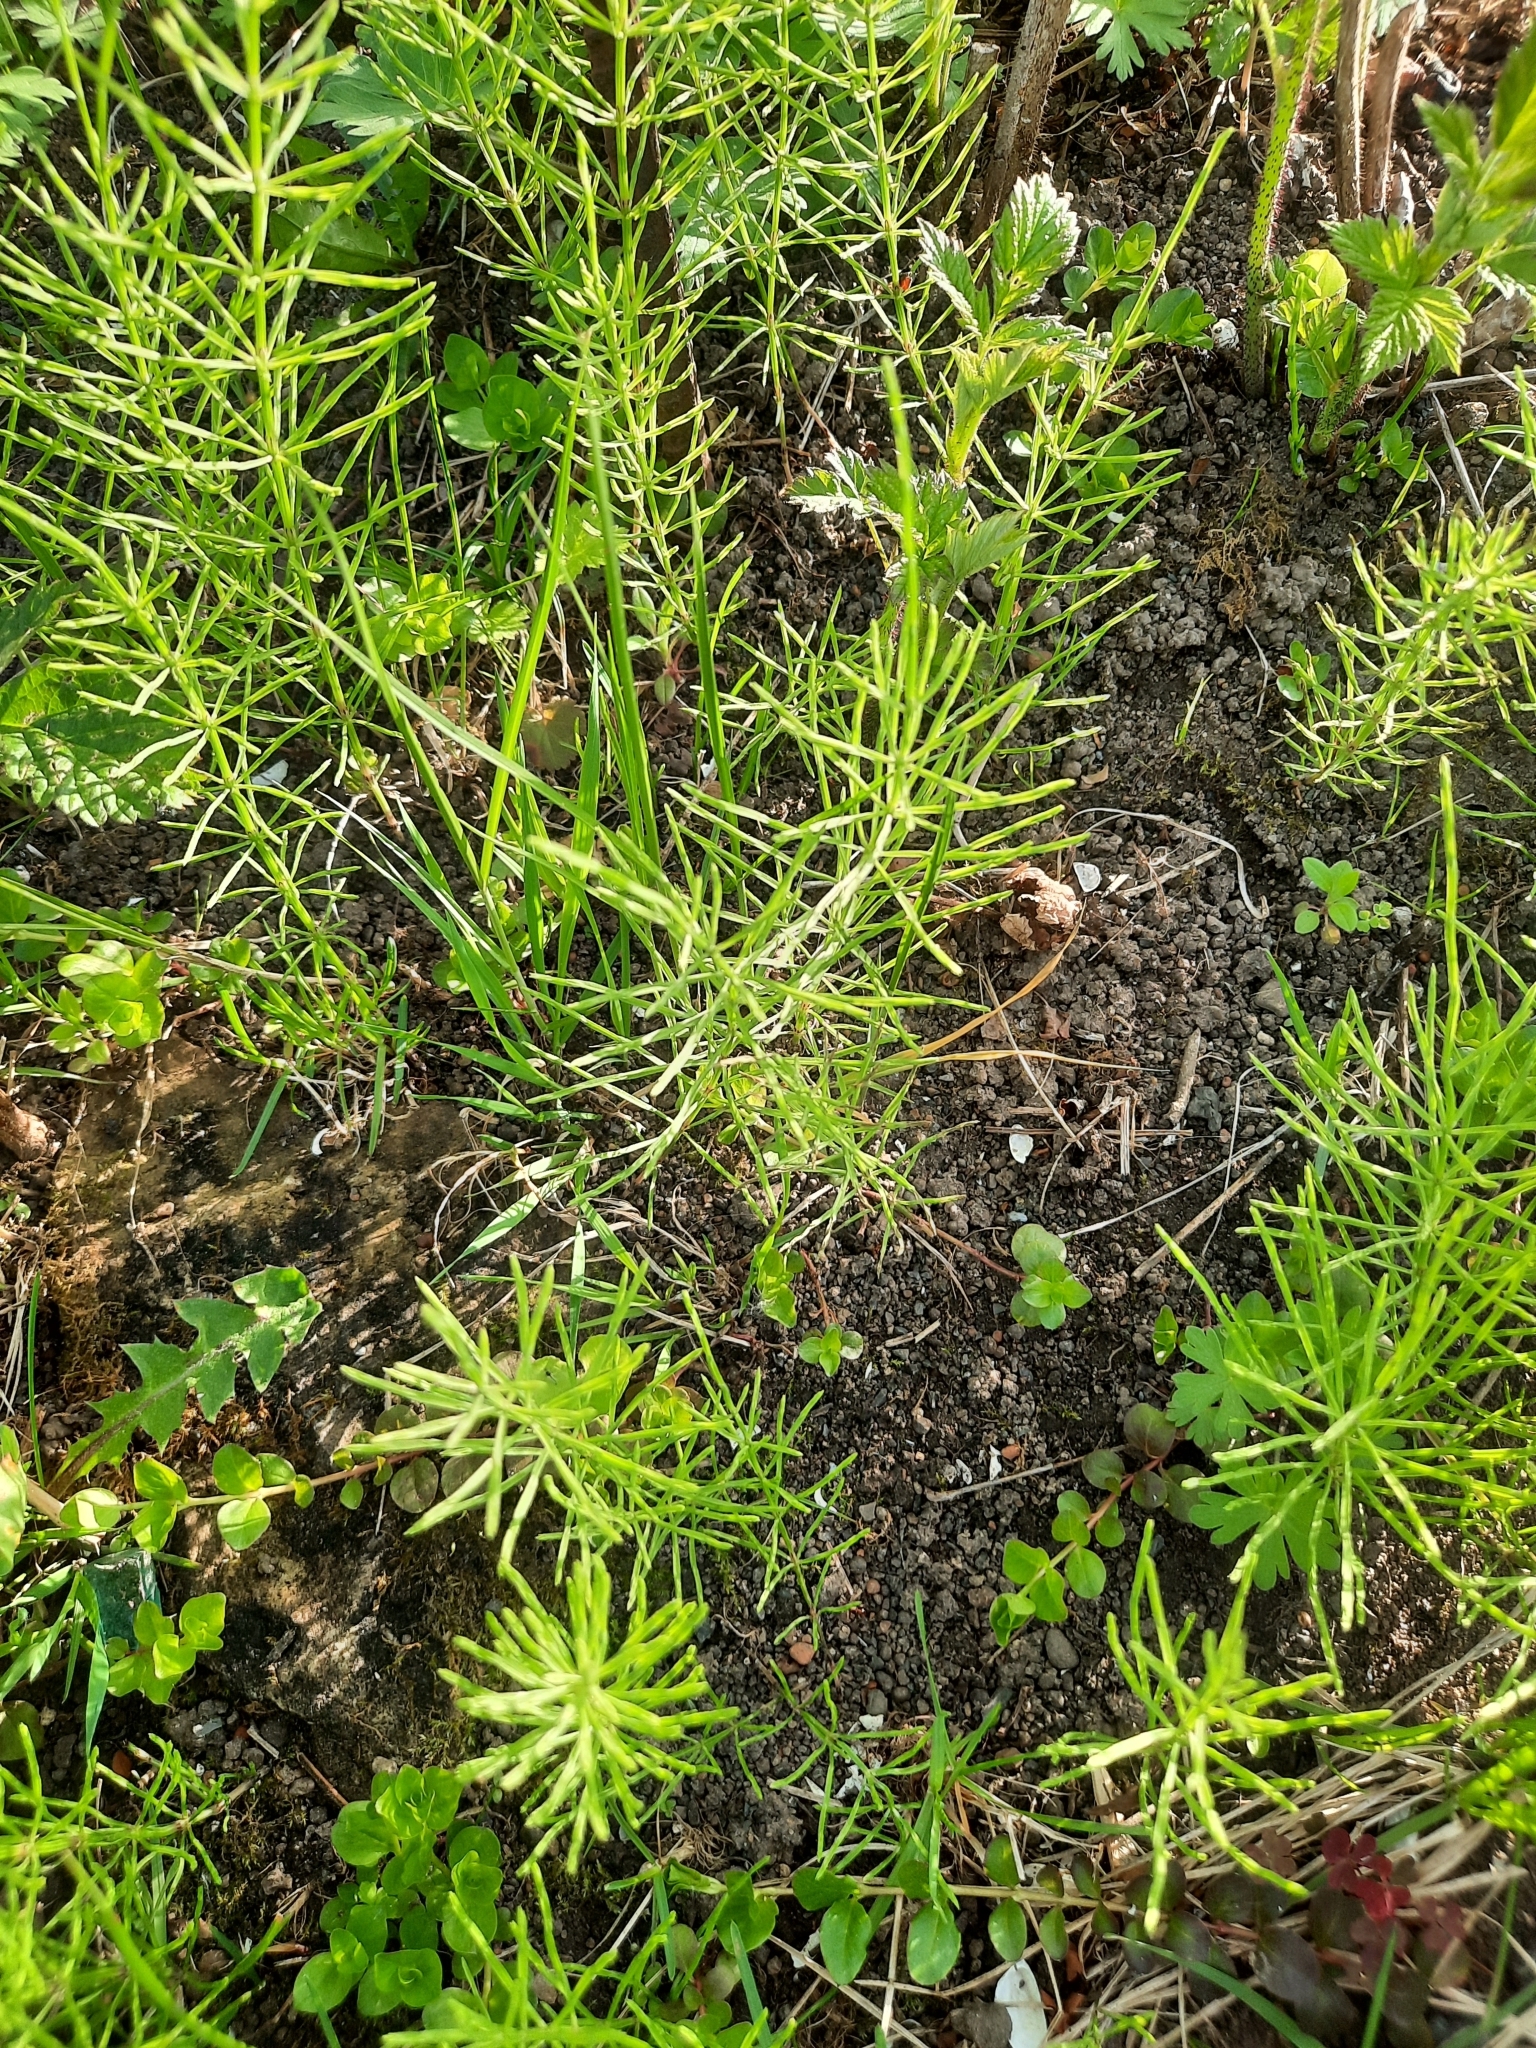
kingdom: Plantae
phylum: Tracheophyta
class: Polypodiopsida
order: Equisetales
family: Equisetaceae
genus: Equisetum
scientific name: Equisetum arvense
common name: Field horsetail
